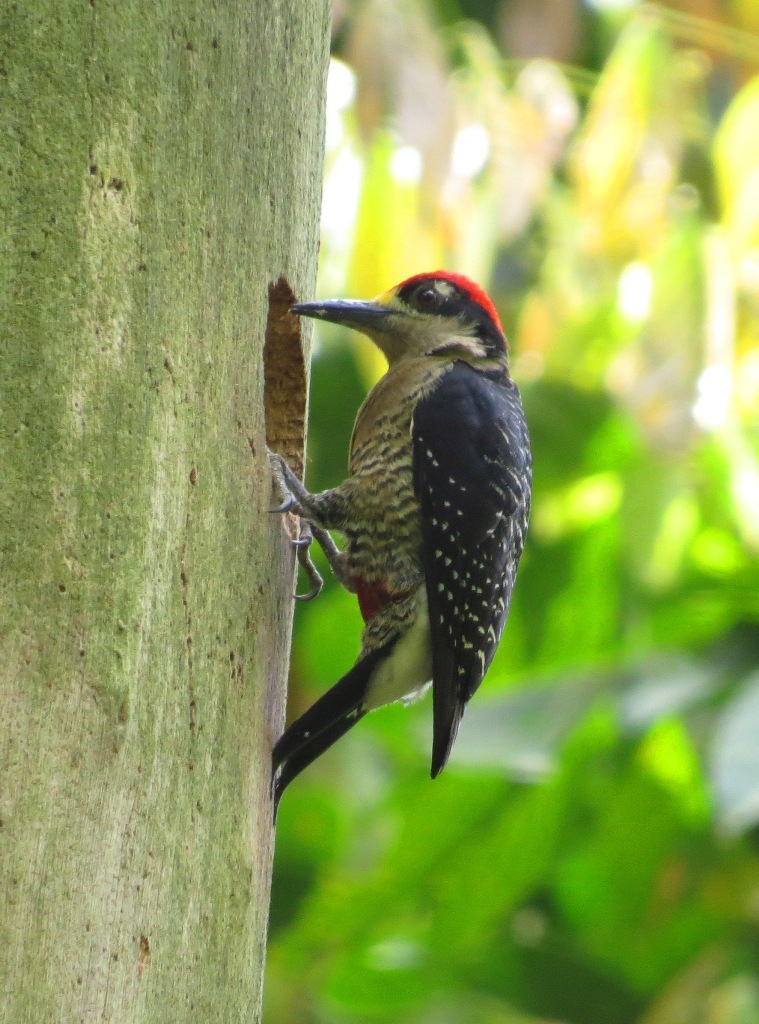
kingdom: Animalia
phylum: Chordata
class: Aves
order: Piciformes
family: Picidae
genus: Melanerpes
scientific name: Melanerpes pucherani
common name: Black-cheeked woodpecker
